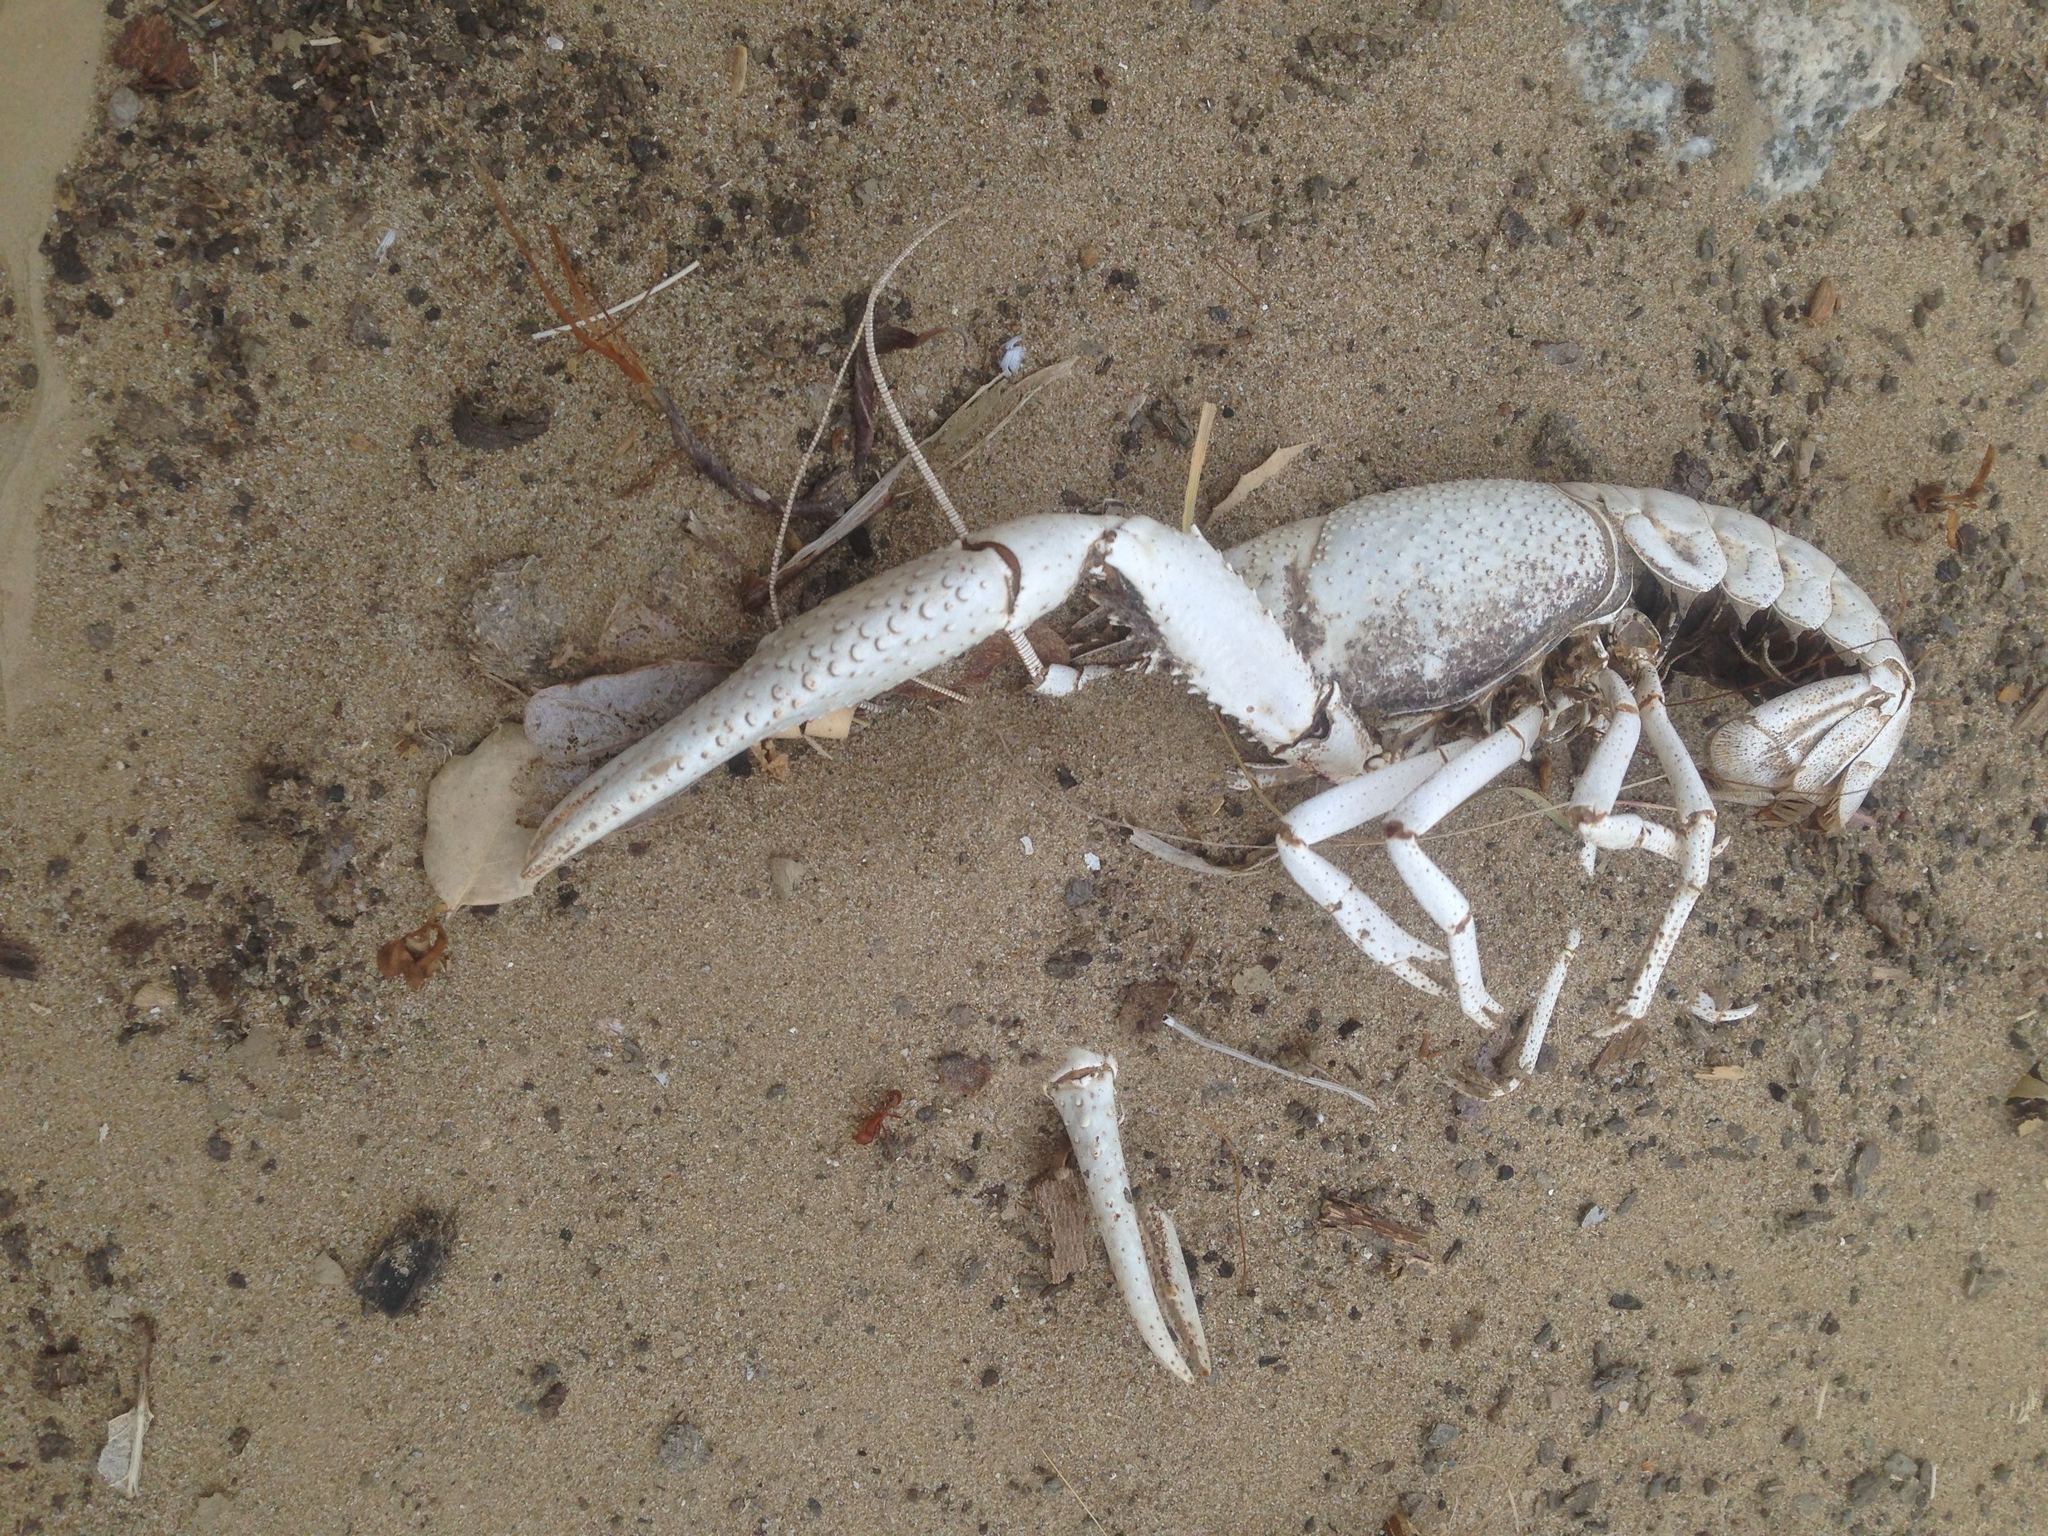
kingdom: Animalia
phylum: Arthropoda
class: Malacostraca
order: Decapoda
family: Cambaridae
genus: Procambarus
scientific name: Procambarus clarkii
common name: Red swamp crayfish
